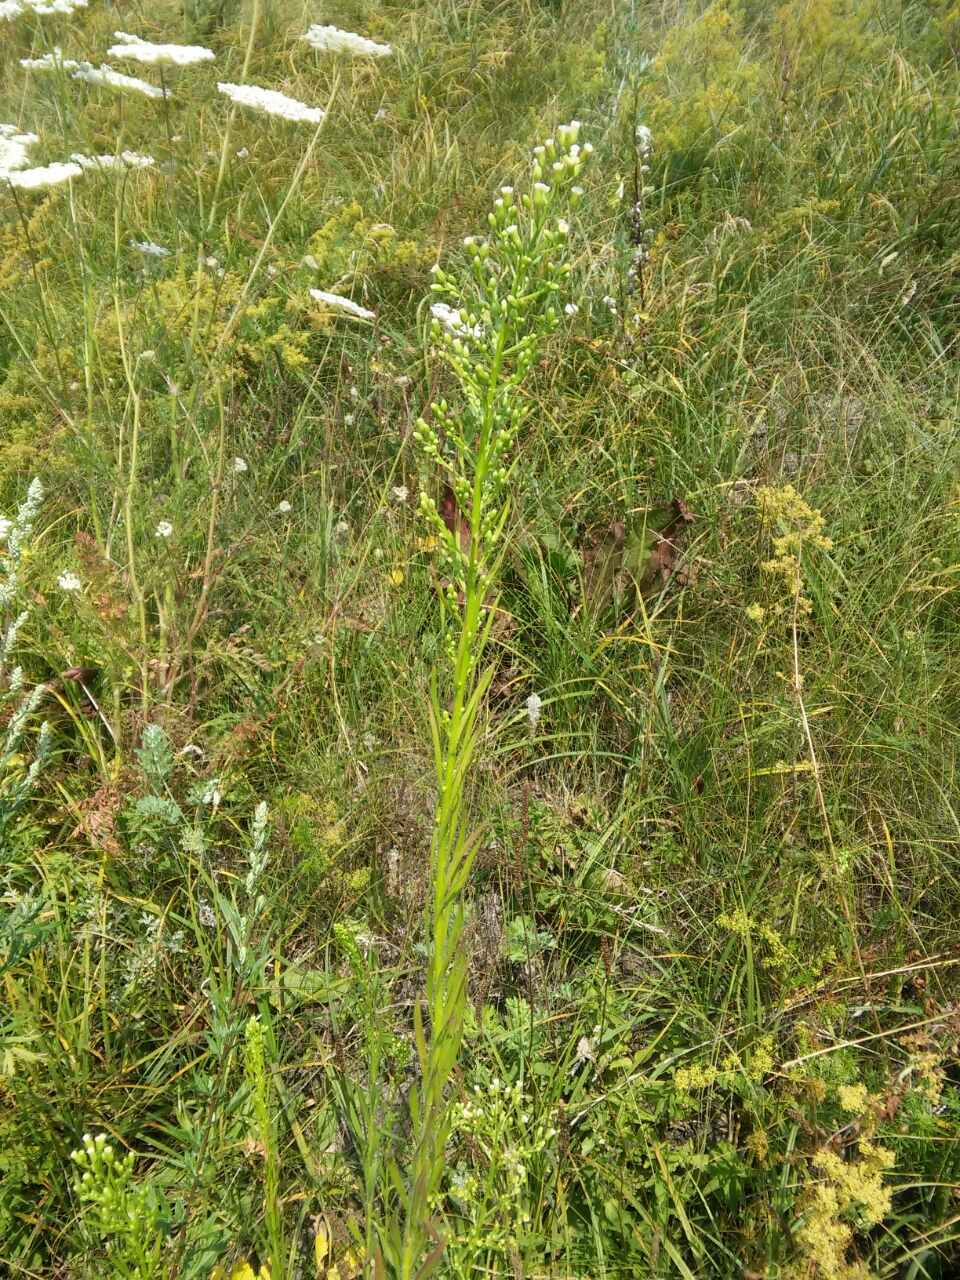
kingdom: Plantae
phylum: Tracheophyta
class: Magnoliopsida
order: Asterales
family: Asteraceae
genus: Erigeron
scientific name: Erigeron canadensis
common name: Canadian fleabane
